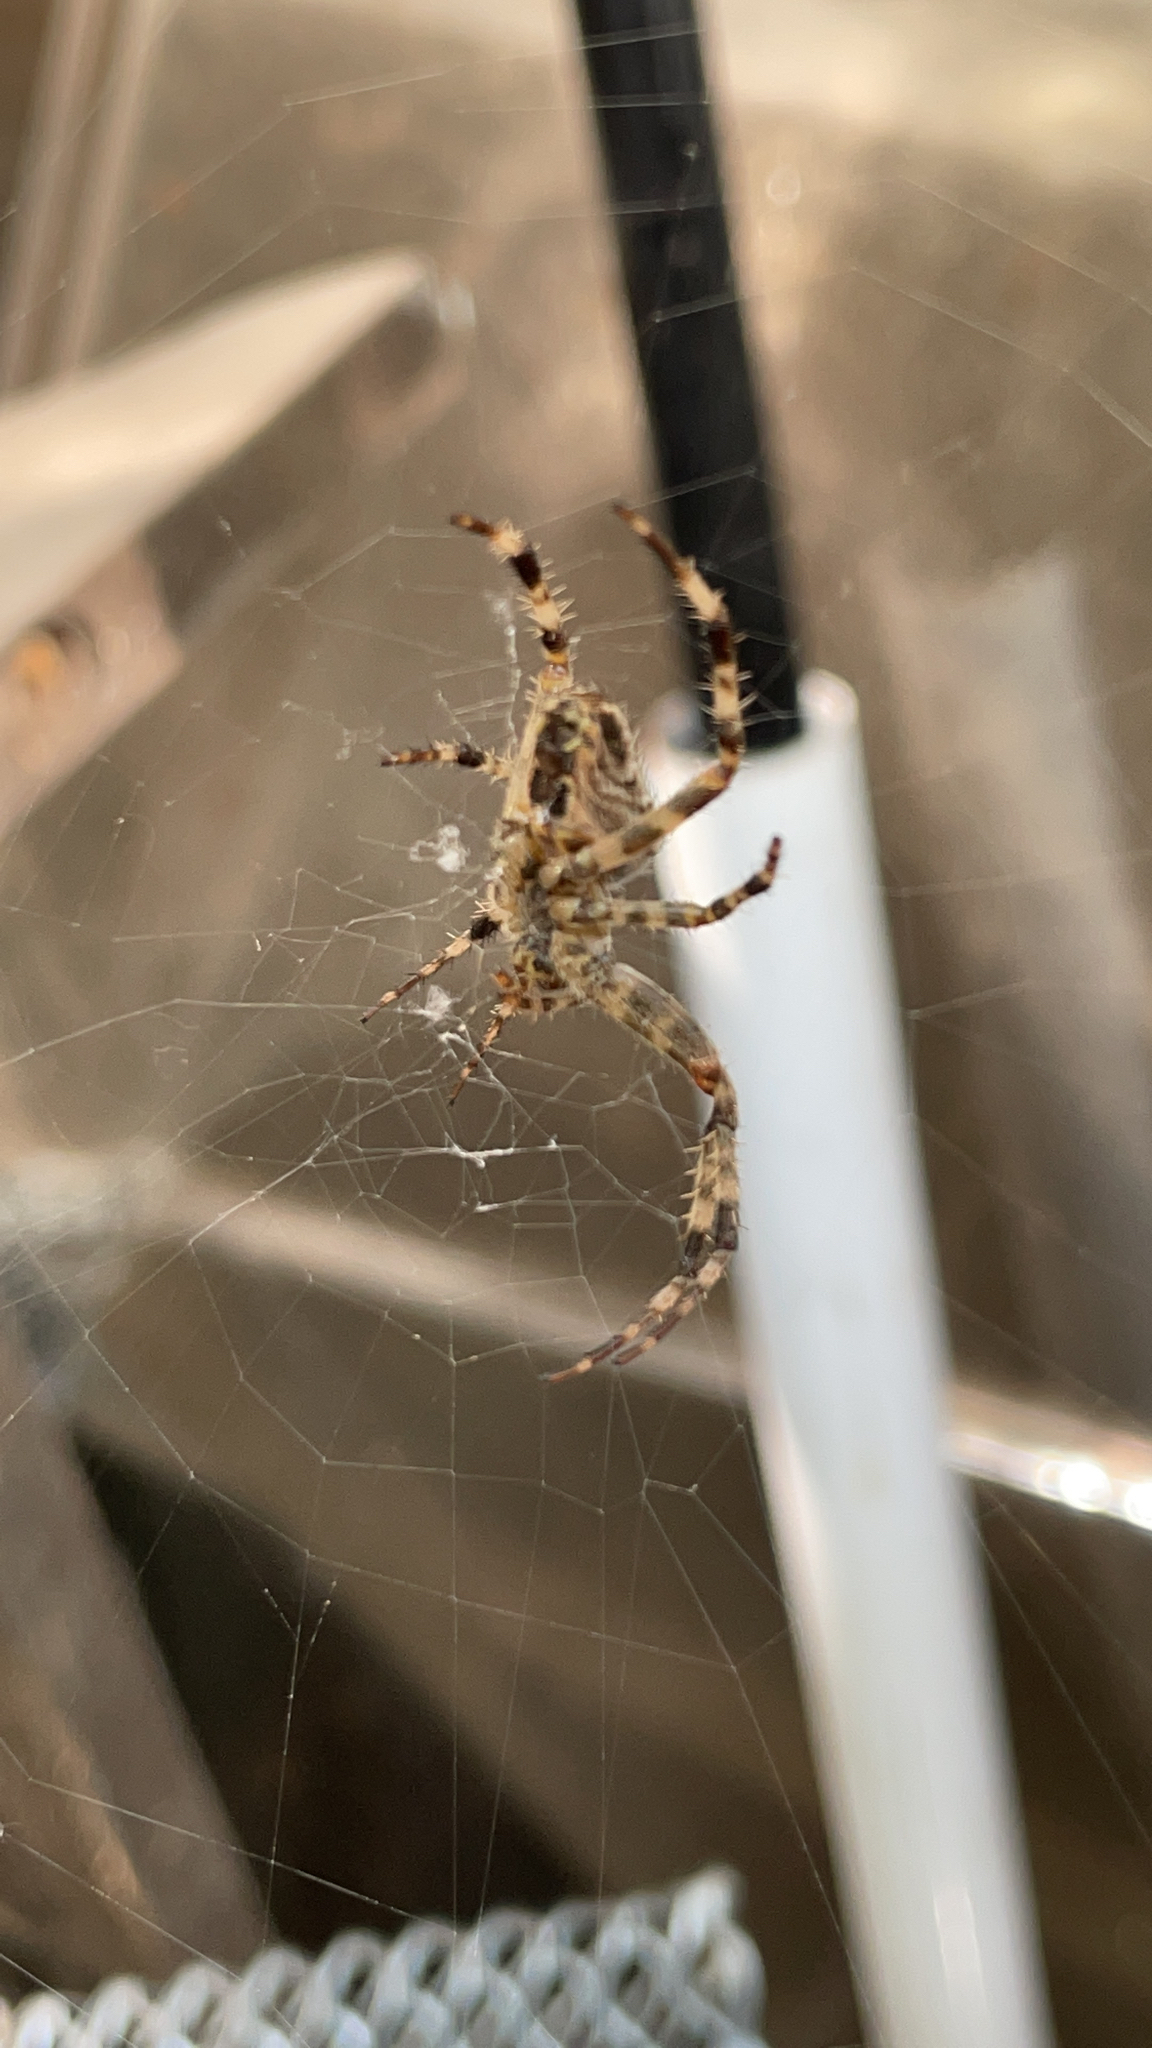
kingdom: Animalia
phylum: Arthropoda
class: Arachnida
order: Araneae
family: Araneidae
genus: Araneus
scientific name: Araneus diadematus
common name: Cross orbweaver
